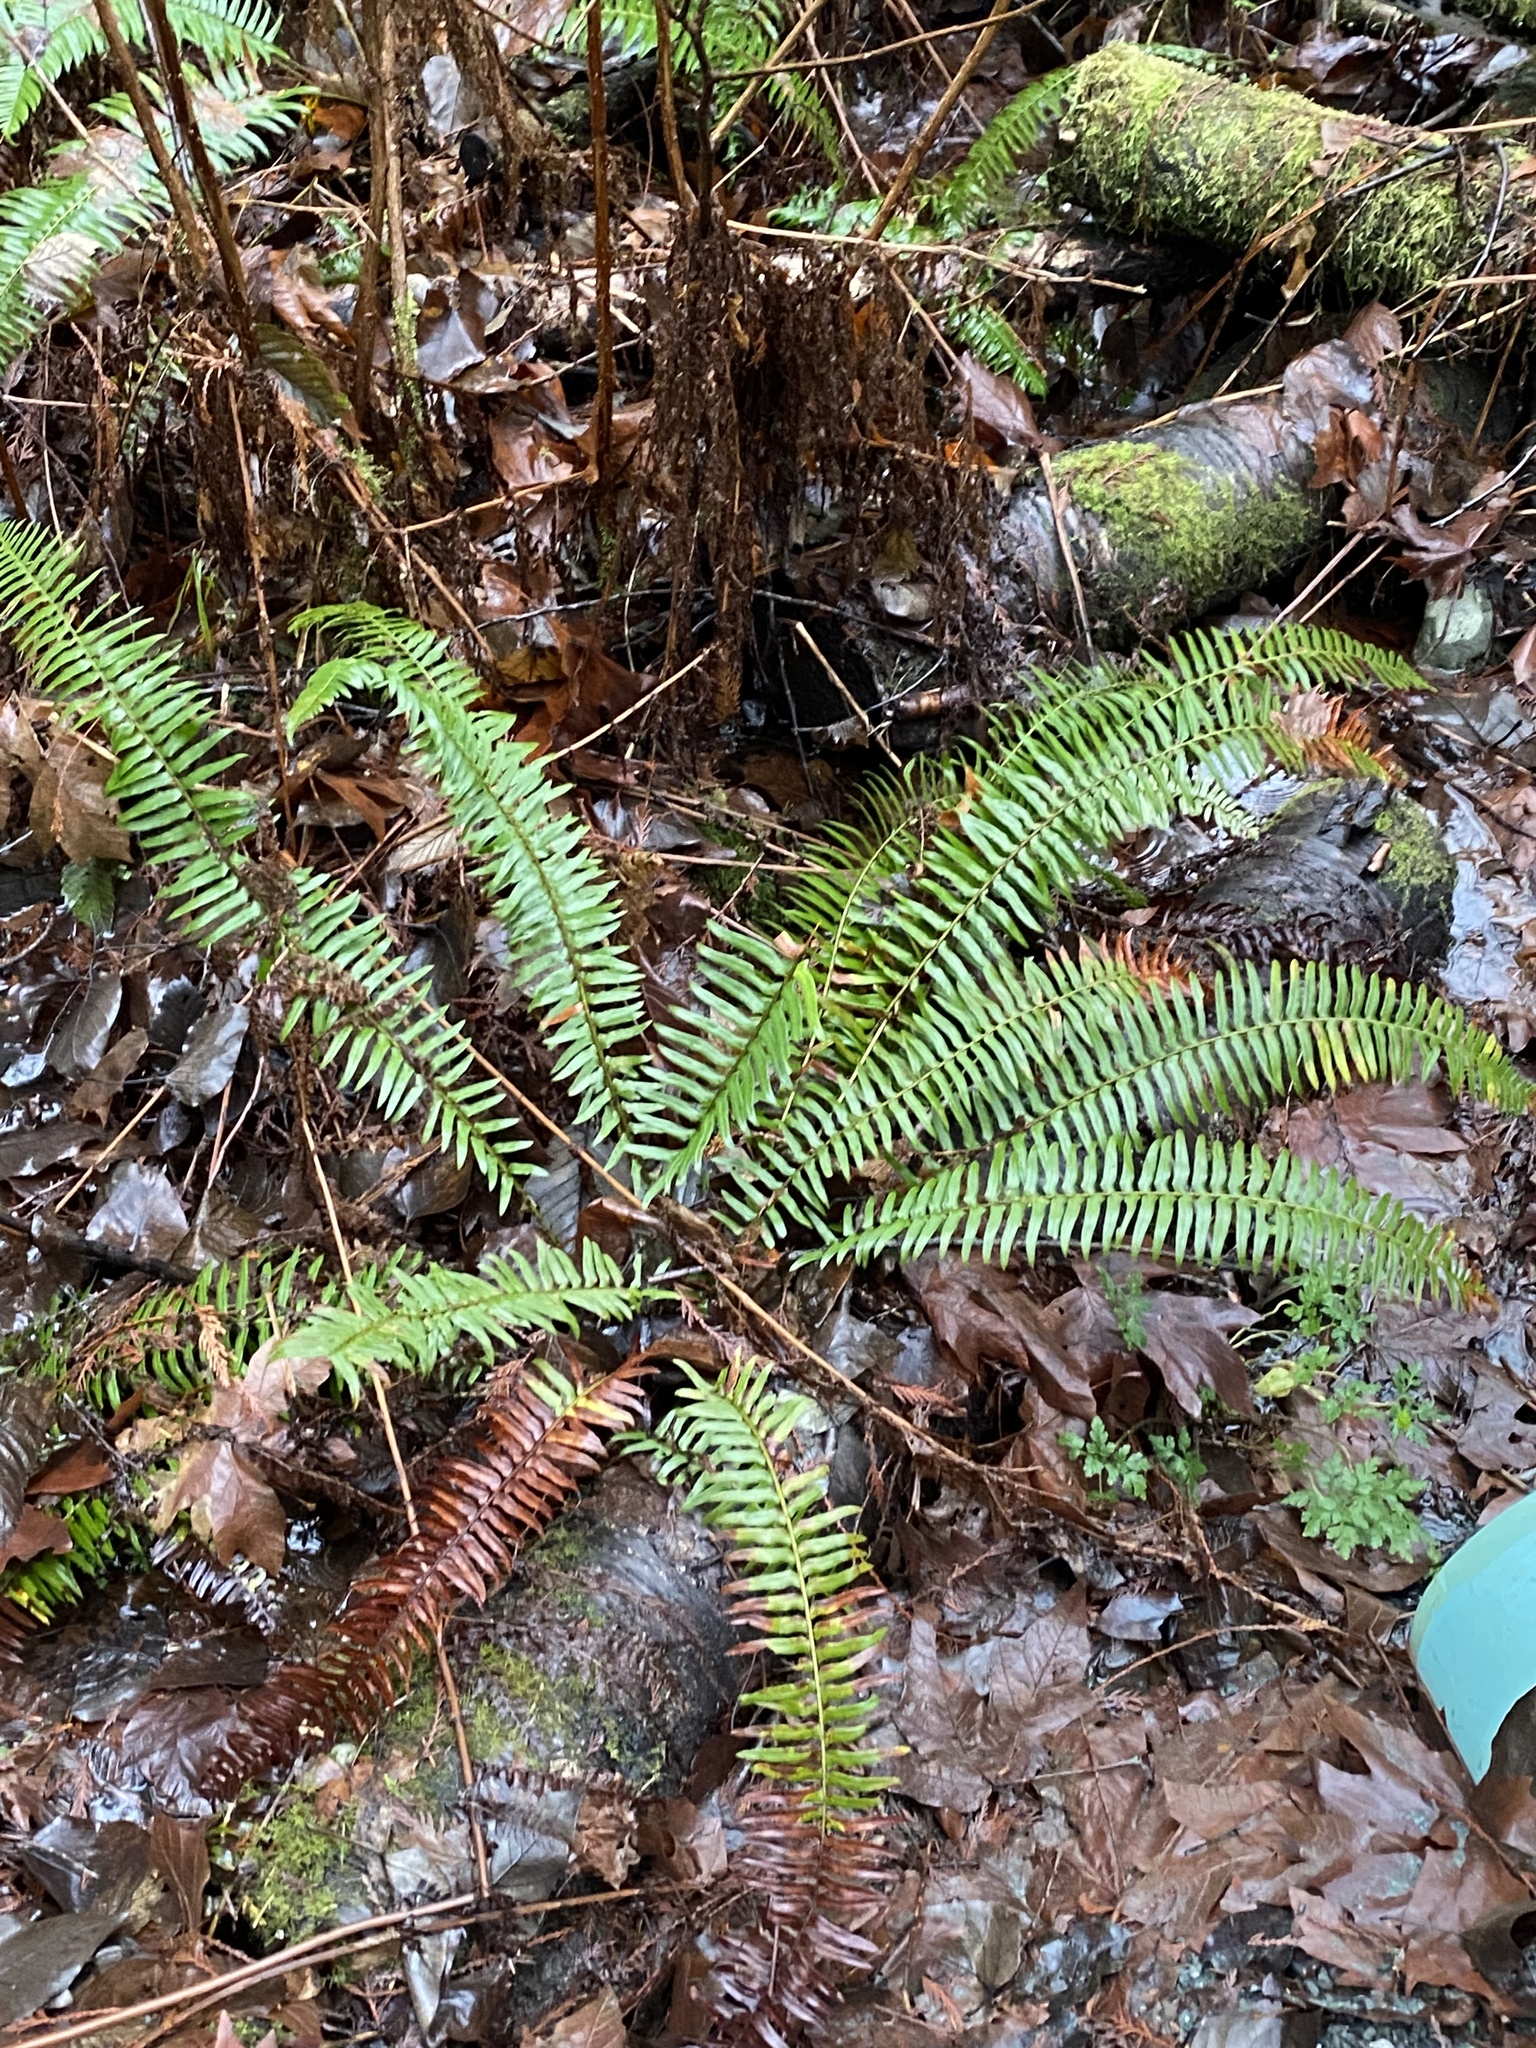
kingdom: Plantae
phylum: Tracheophyta
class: Polypodiopsida
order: Polypodiales
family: Dryopteridaceae
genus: Polystichum
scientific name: Polystichum munitum
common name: Western sword-fern
